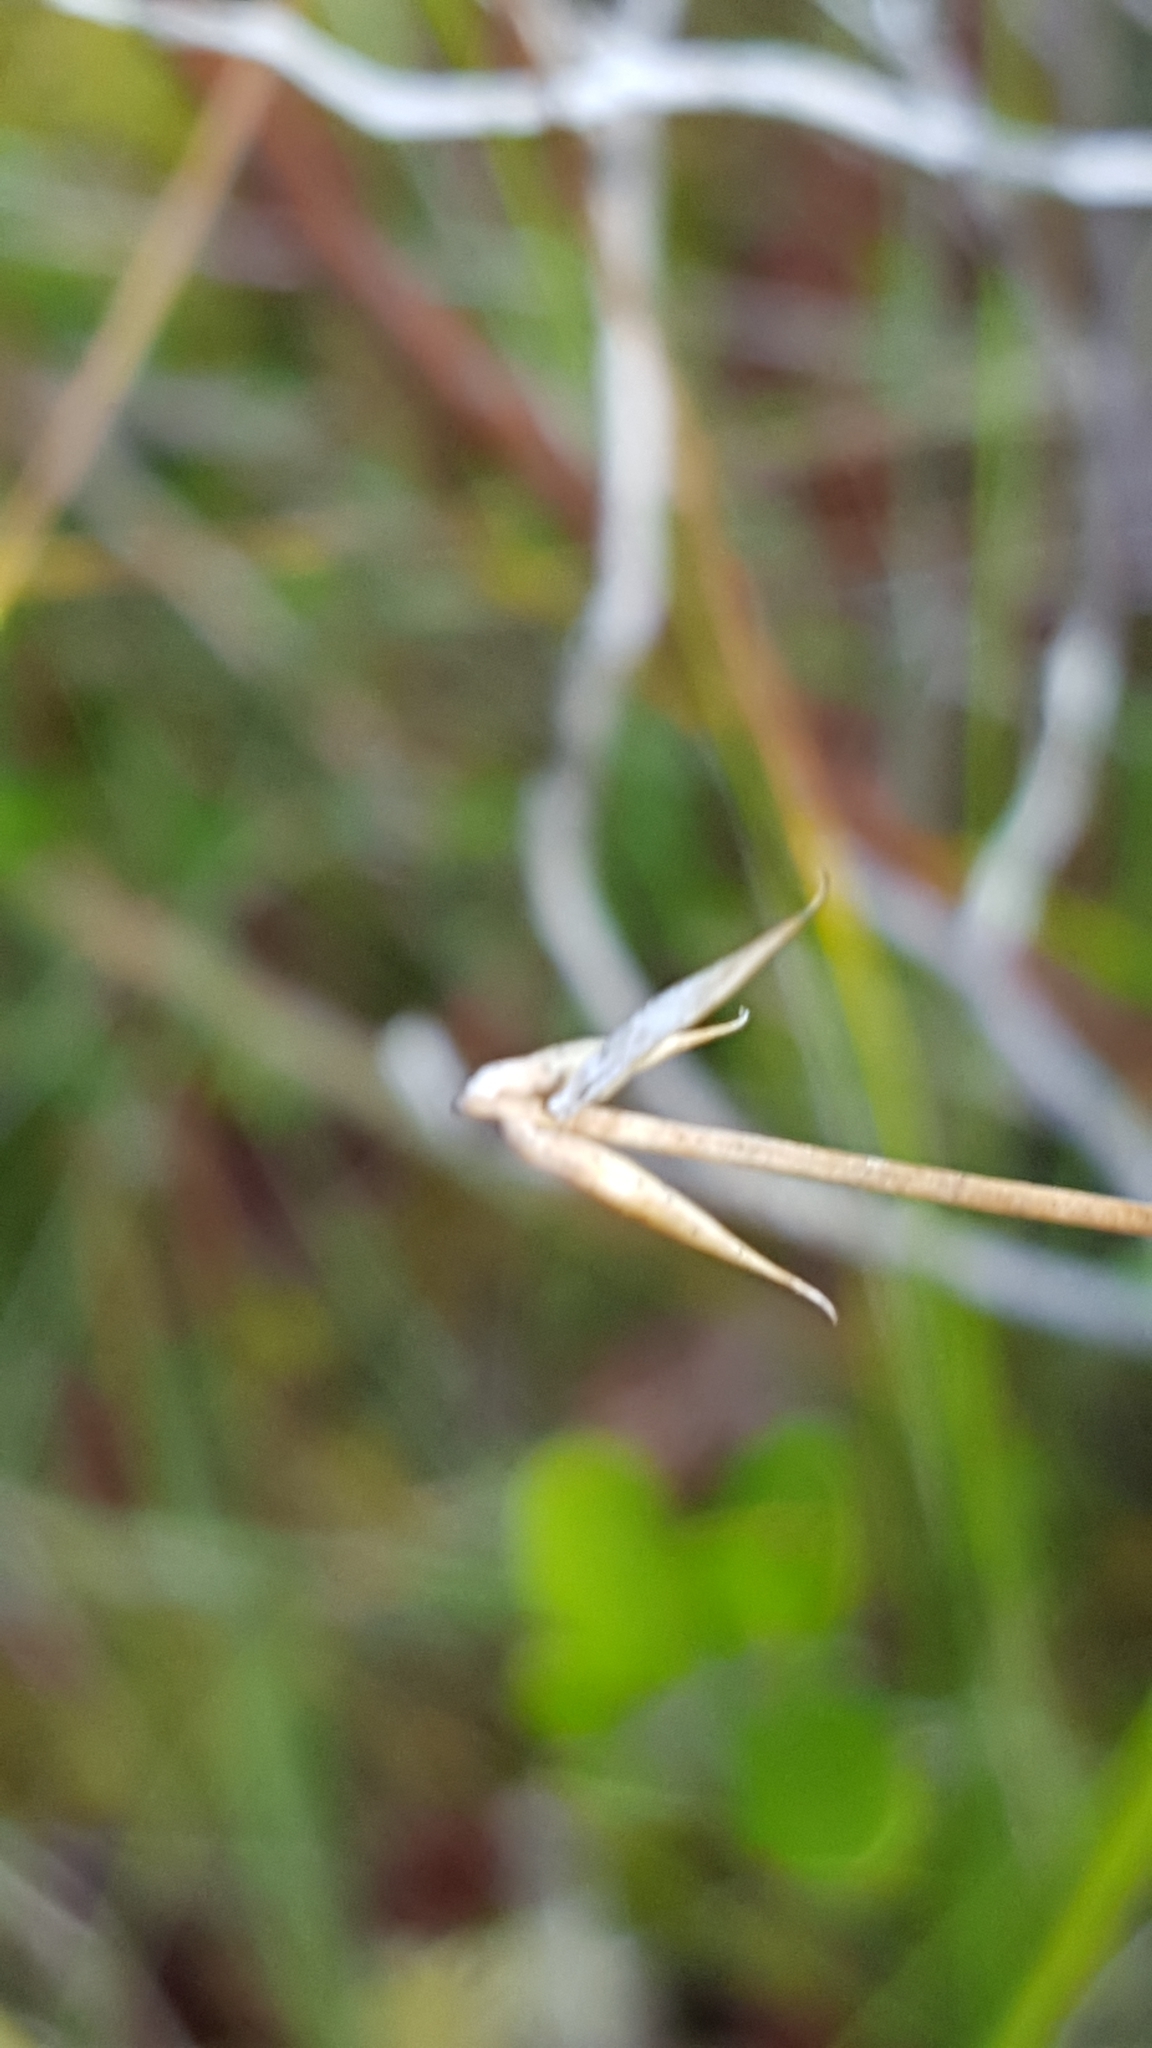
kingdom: Plantae
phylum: Tracheophyta
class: Liliopsida
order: Poales
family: Cyperaceae
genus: Carex
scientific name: Carex pauciflora
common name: Few-flowered sedge
